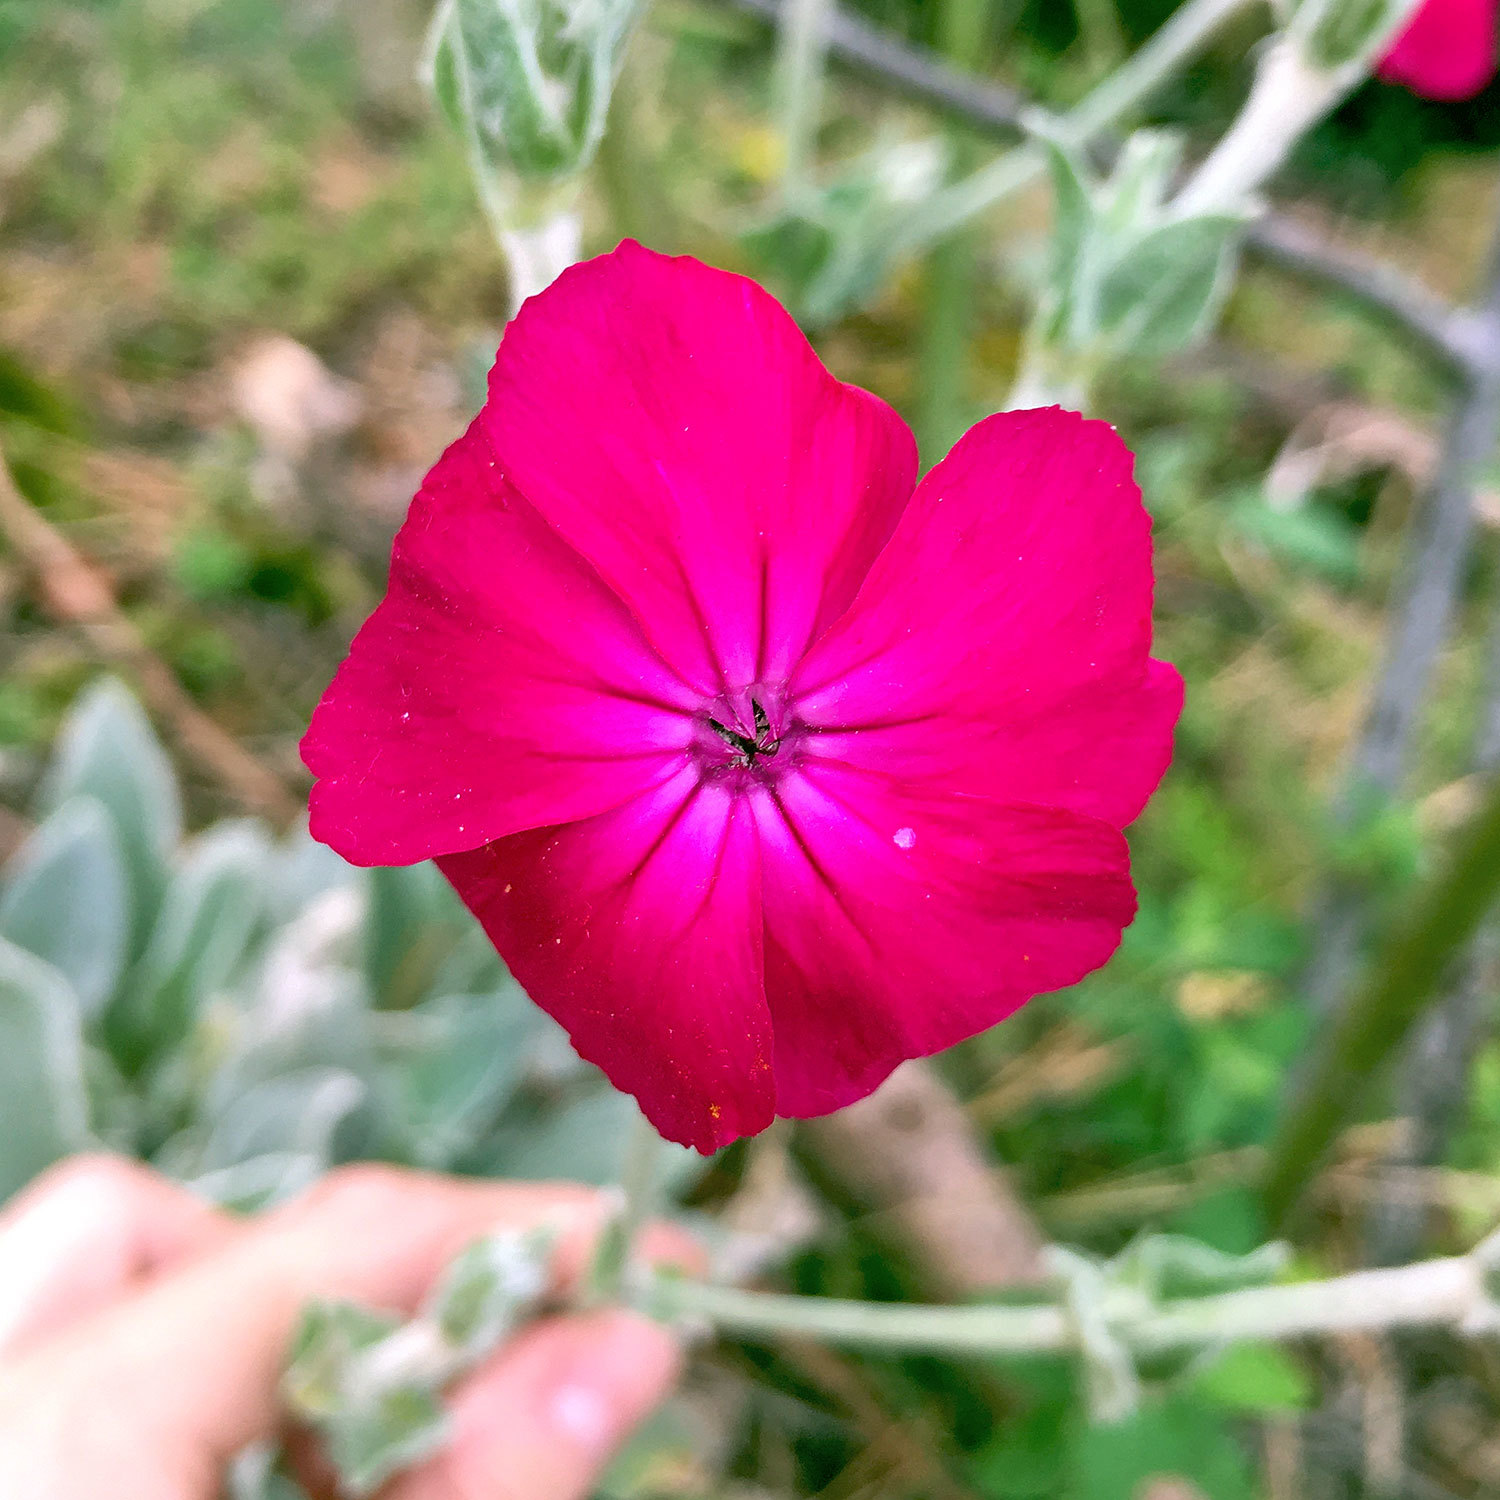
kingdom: Plantae
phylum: Tracheophyta
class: Magnoliopsida
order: Caryophyllales
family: Caryophyllaceae
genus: Silene
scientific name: Silene coronaria
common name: Rose campion
